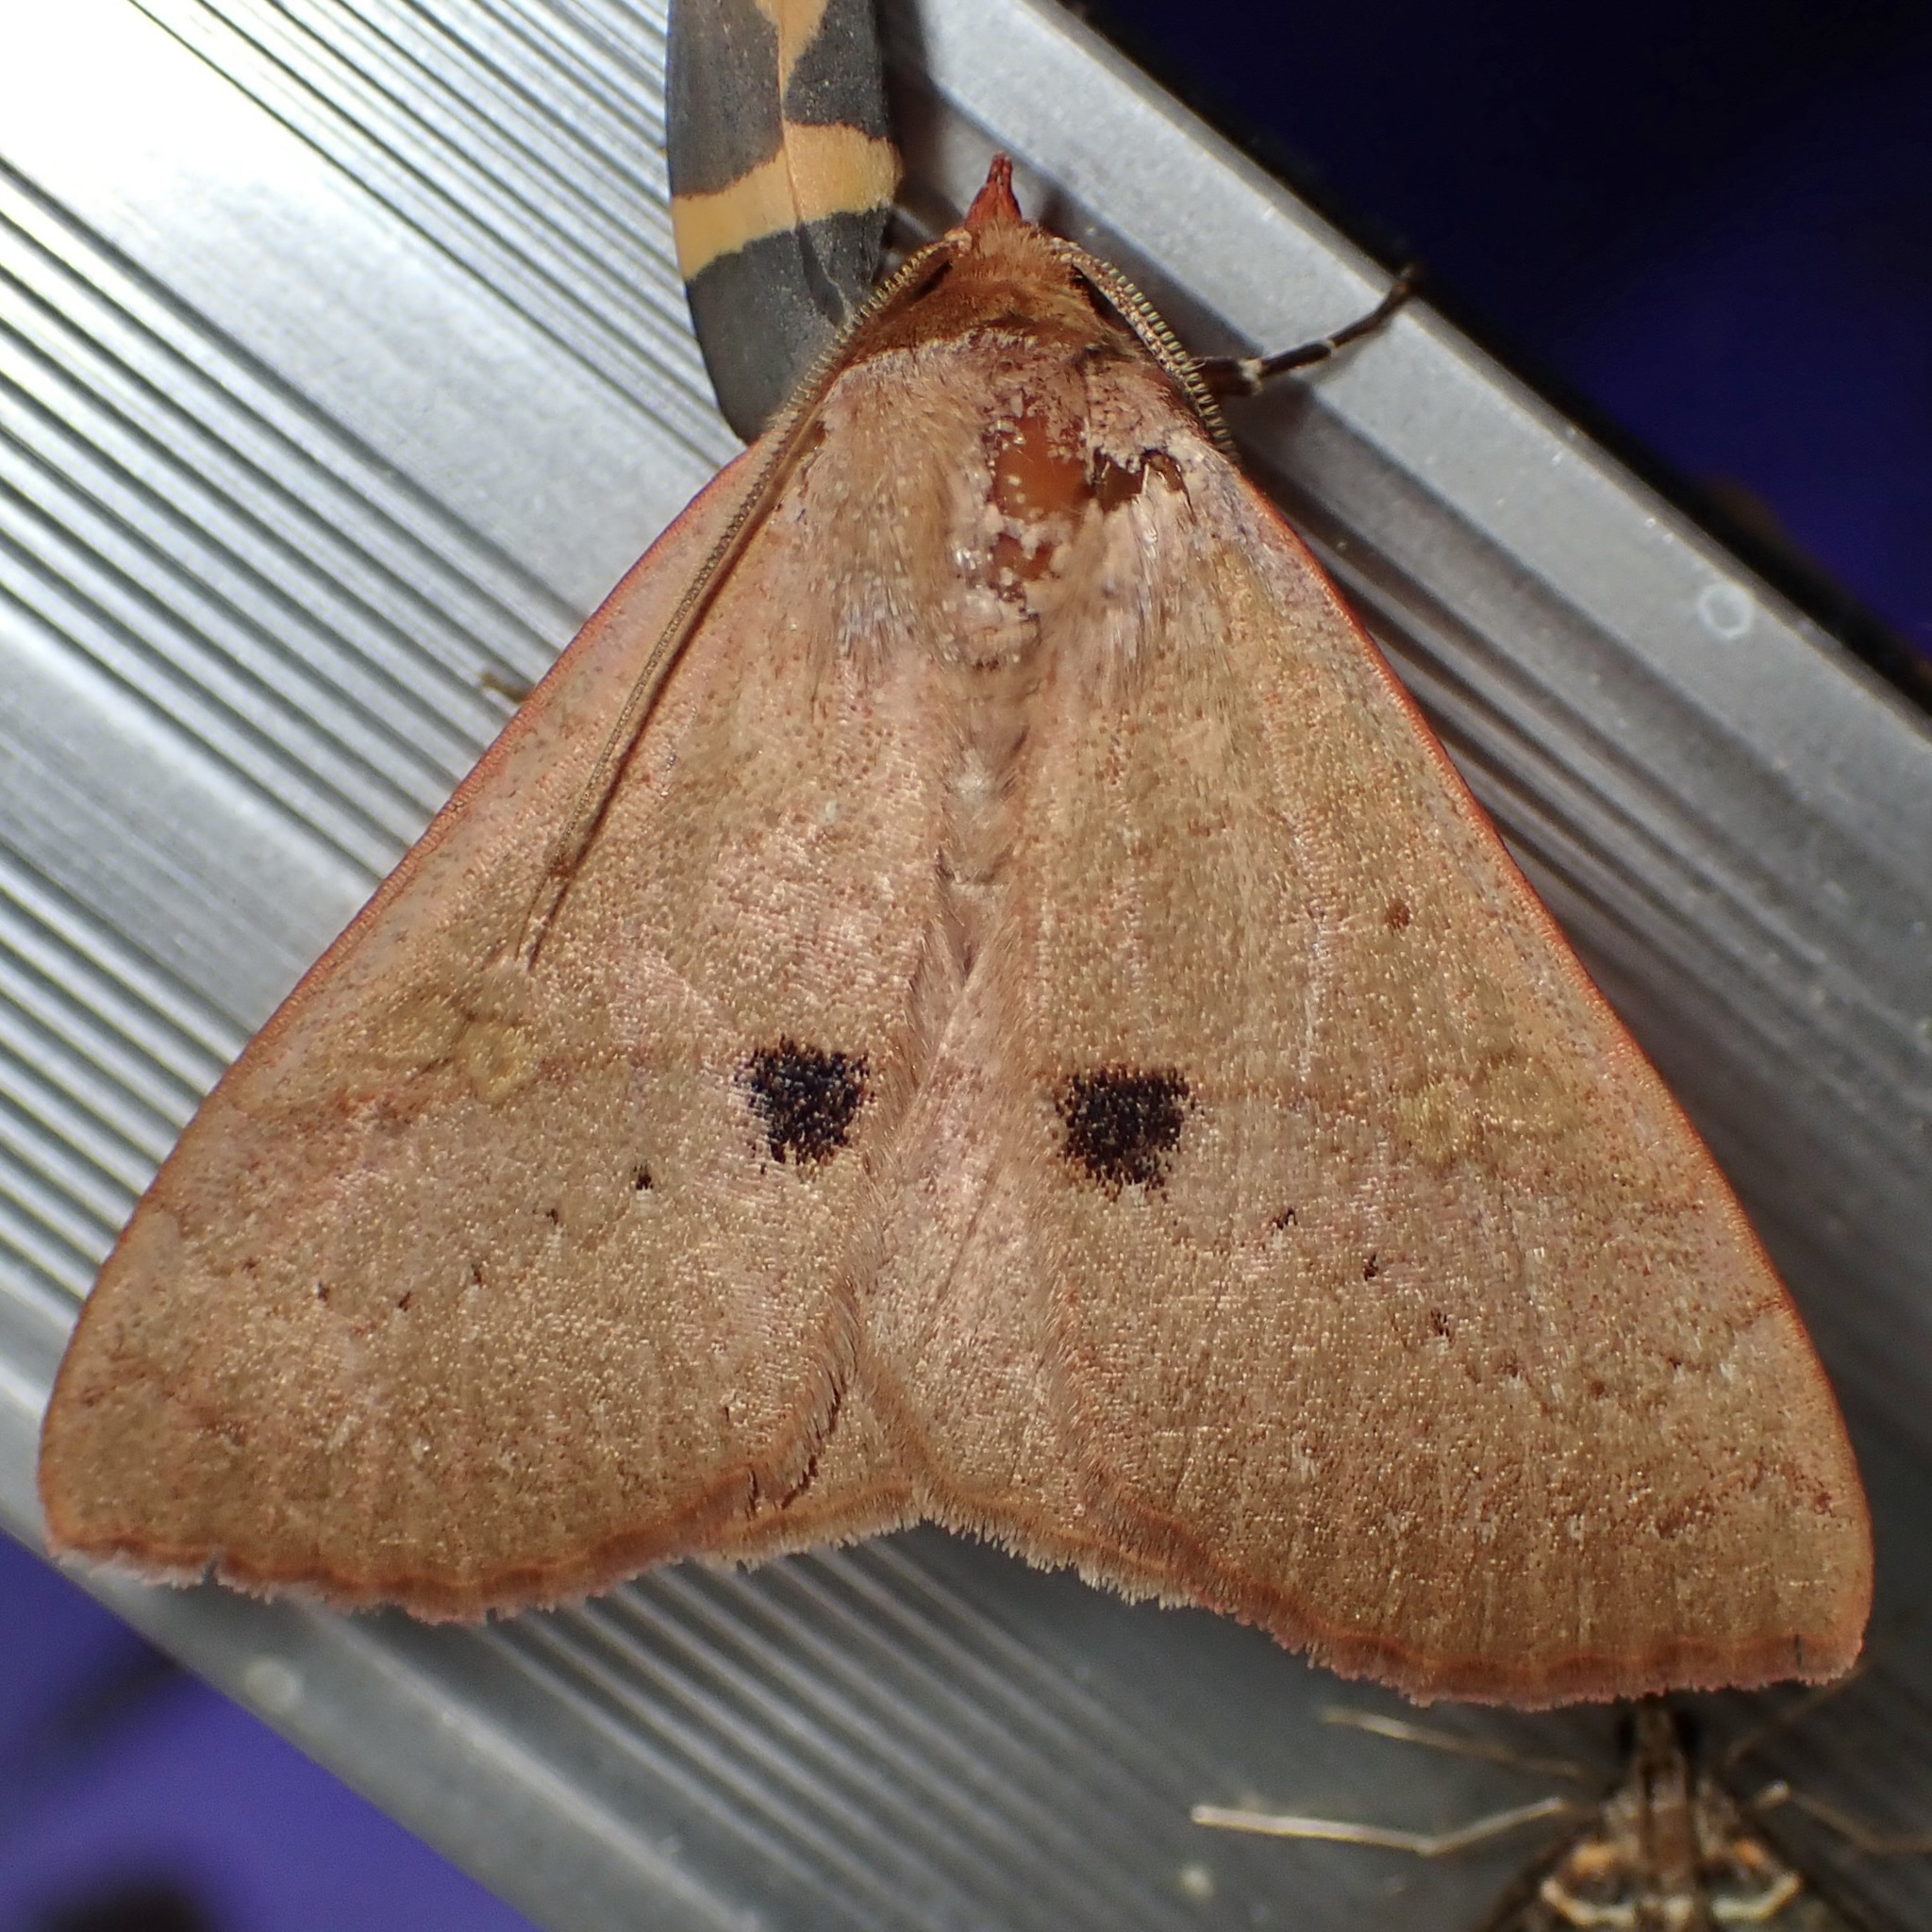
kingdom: Animalia
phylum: Arthropoda
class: Insecta
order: Lepidoptera
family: Erebidae
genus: Panopoda
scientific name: Panopoda rigida
